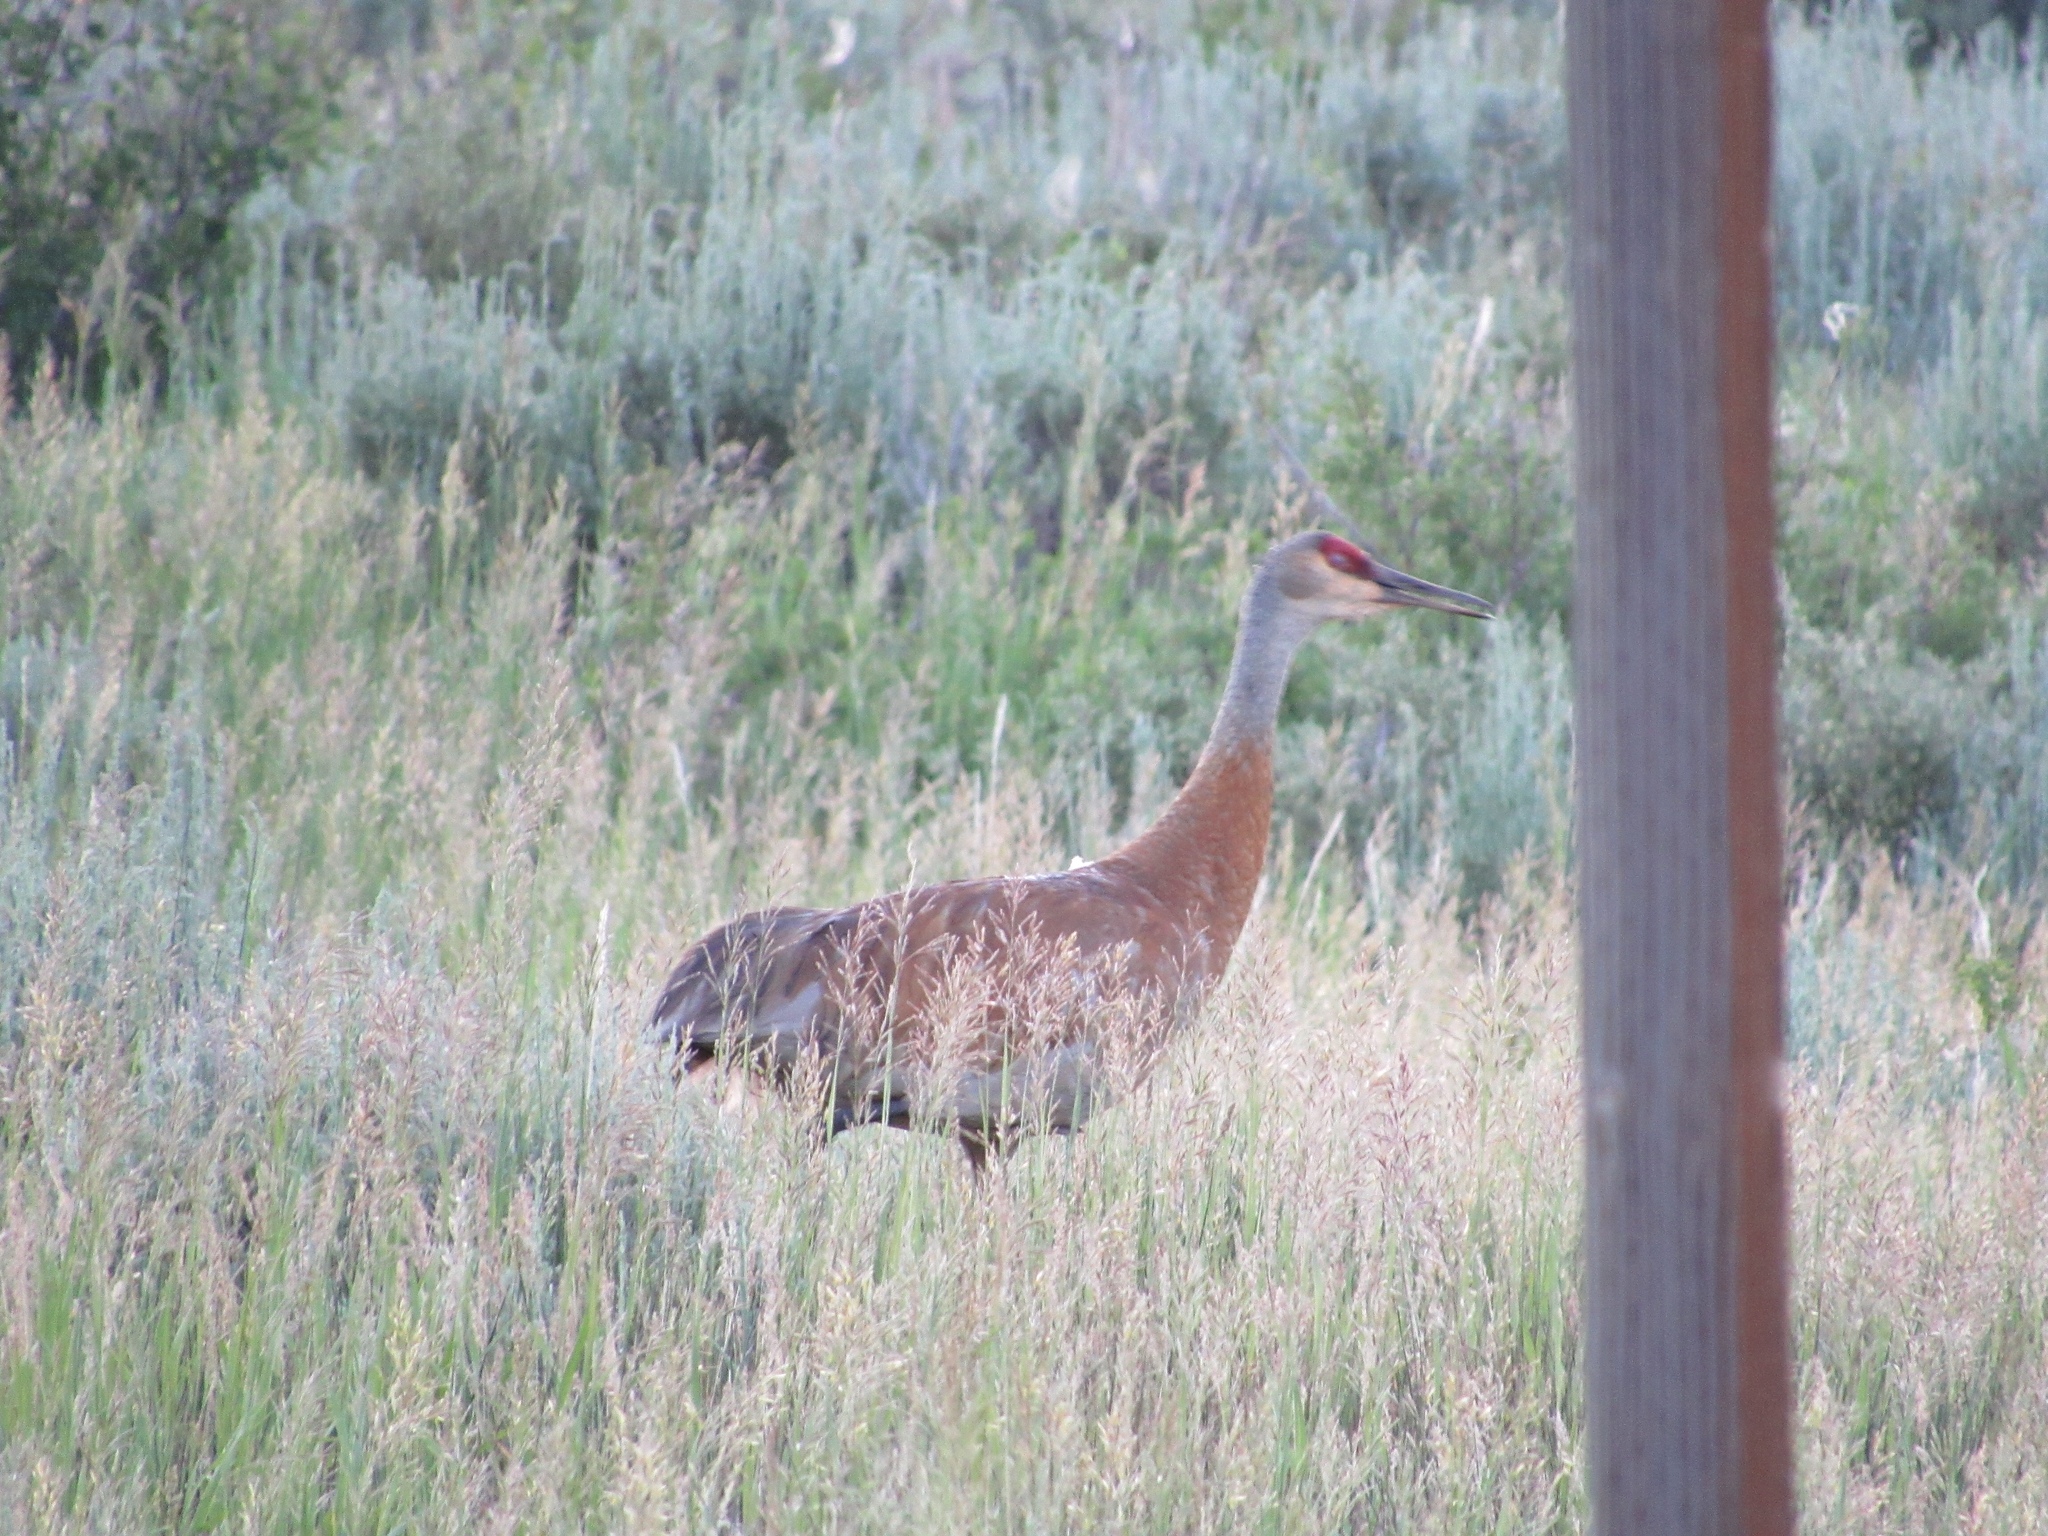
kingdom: Animalia
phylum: Chordata
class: Aves
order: Gruiformes
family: Gruidae
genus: Grus
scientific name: Grus canadensis
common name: Sandhill crane
